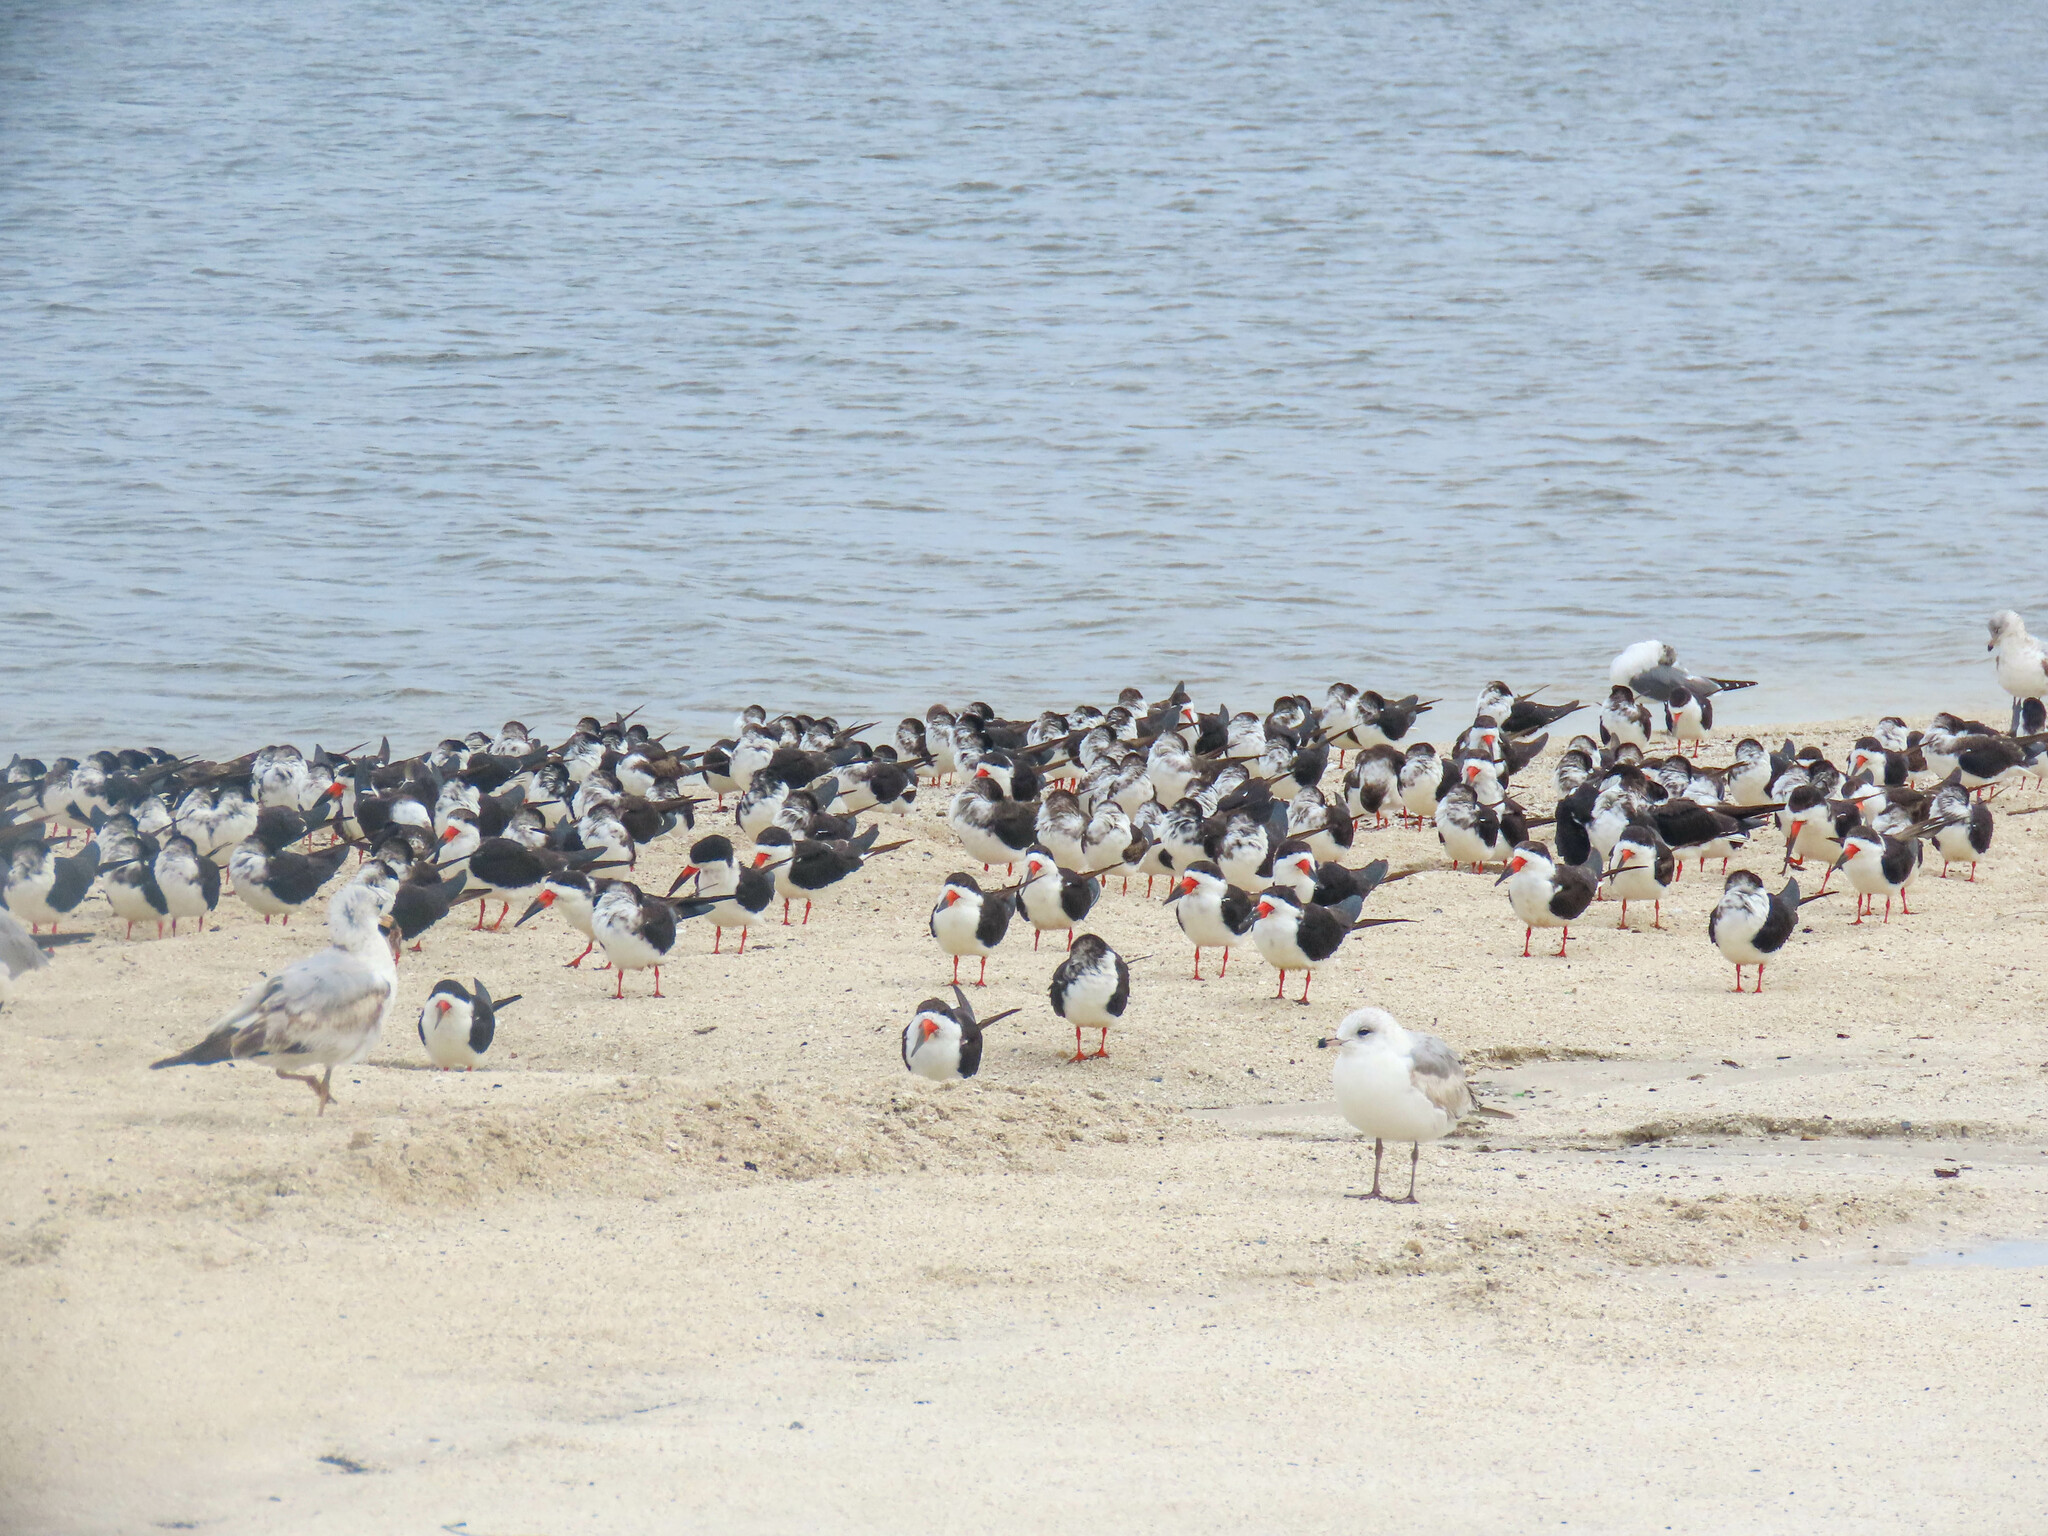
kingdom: Animalia
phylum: Chordata
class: Aves
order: Charadriiformes
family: Laridae
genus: Rynchops
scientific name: Rynchops niger
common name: Black skimmer
